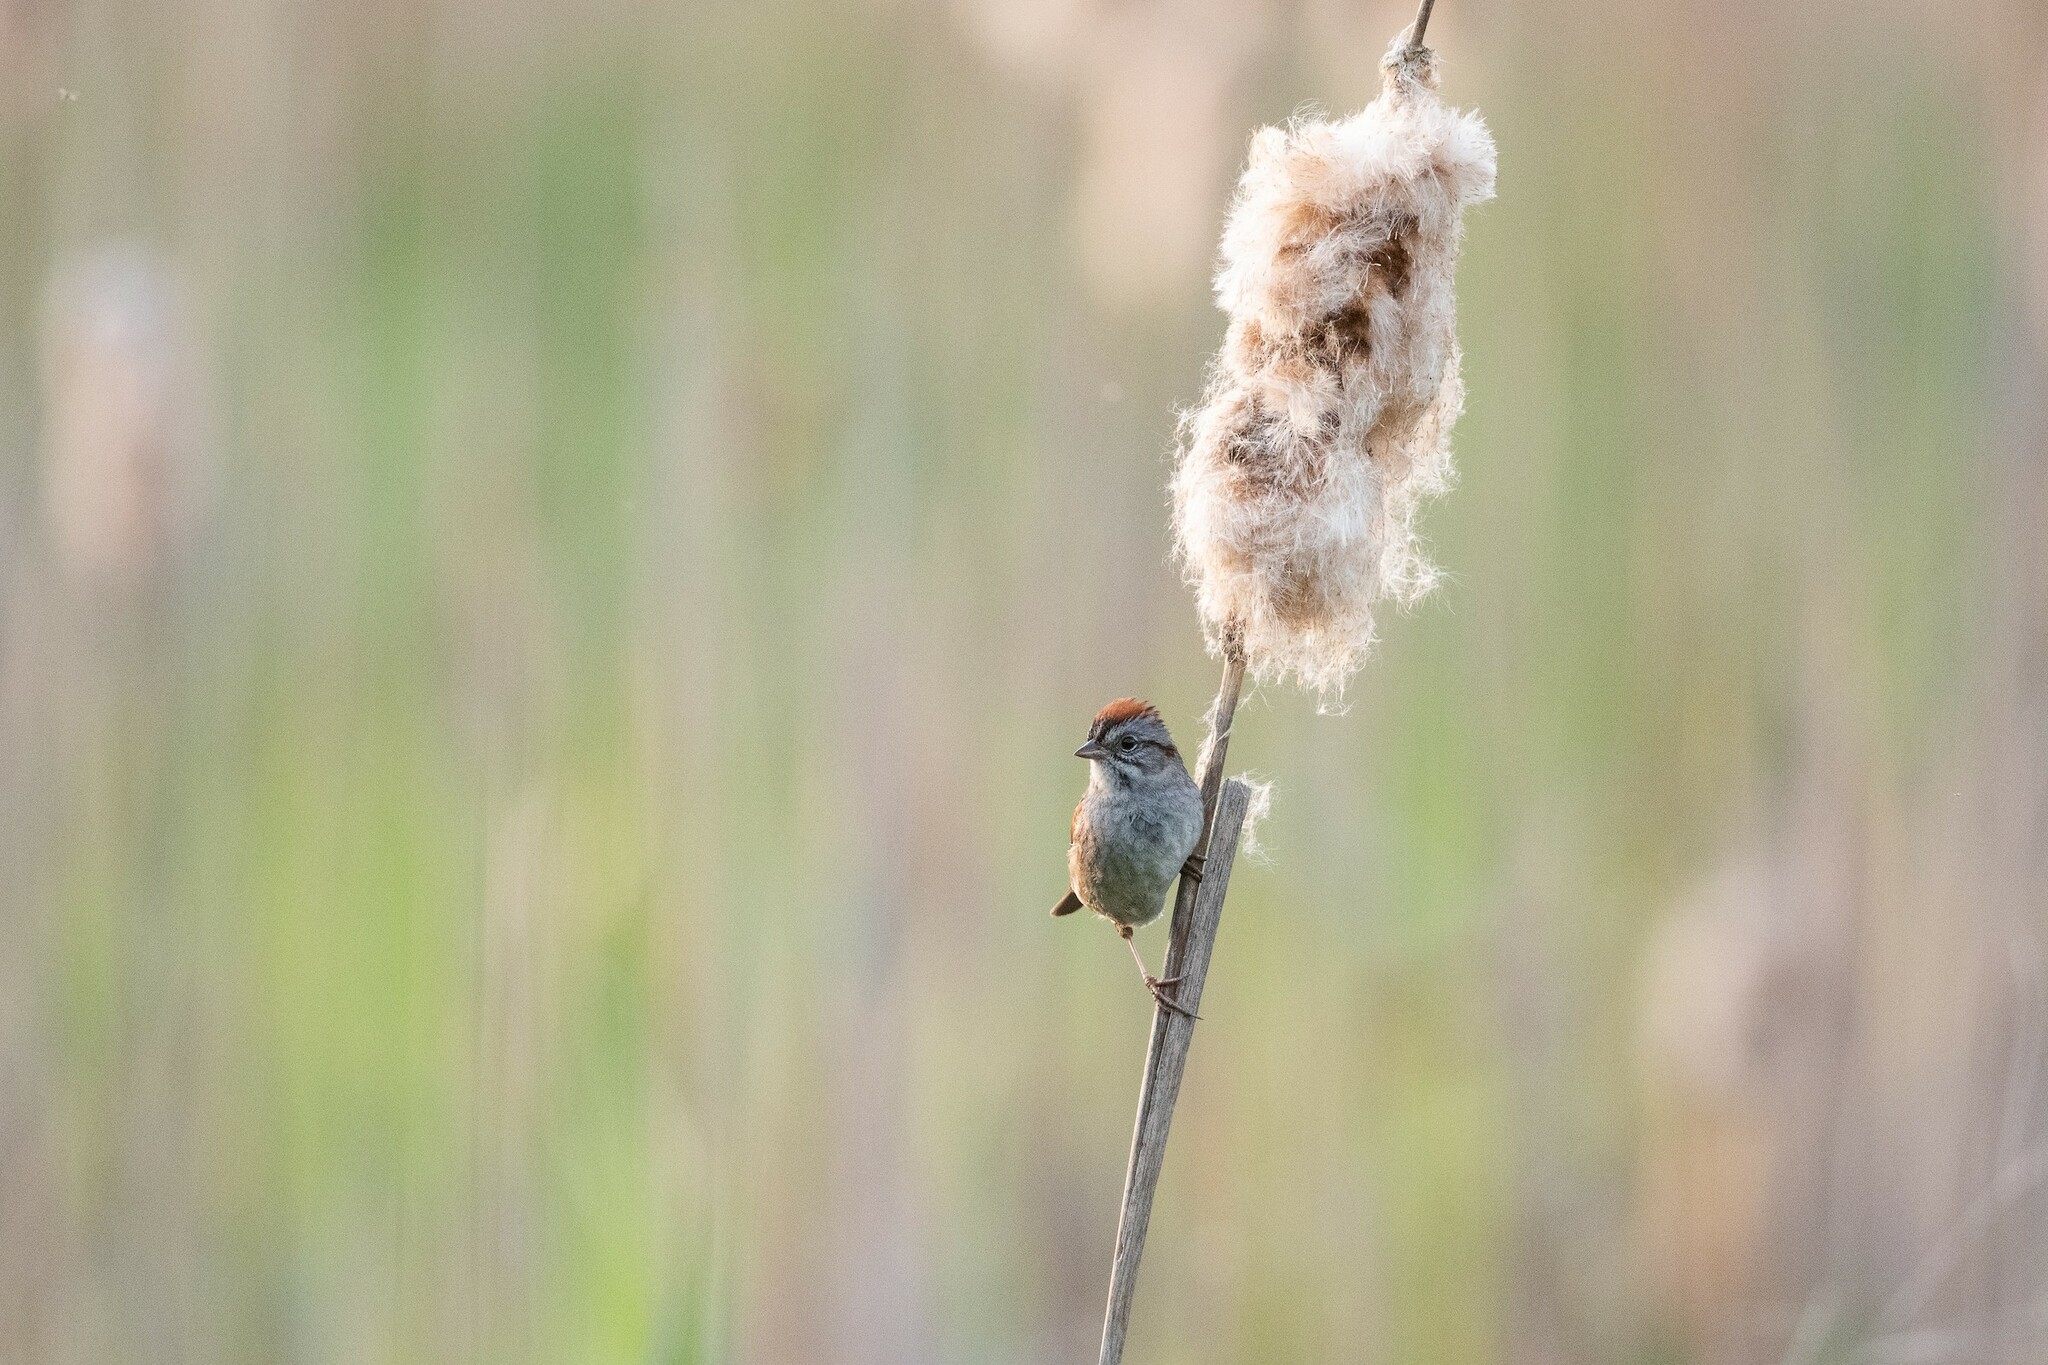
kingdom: Animalia
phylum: Chordata
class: Aves
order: Passeriformes
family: Passerellidae
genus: Melospiza
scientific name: Melospiza georgiana
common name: Swamp sparrow
